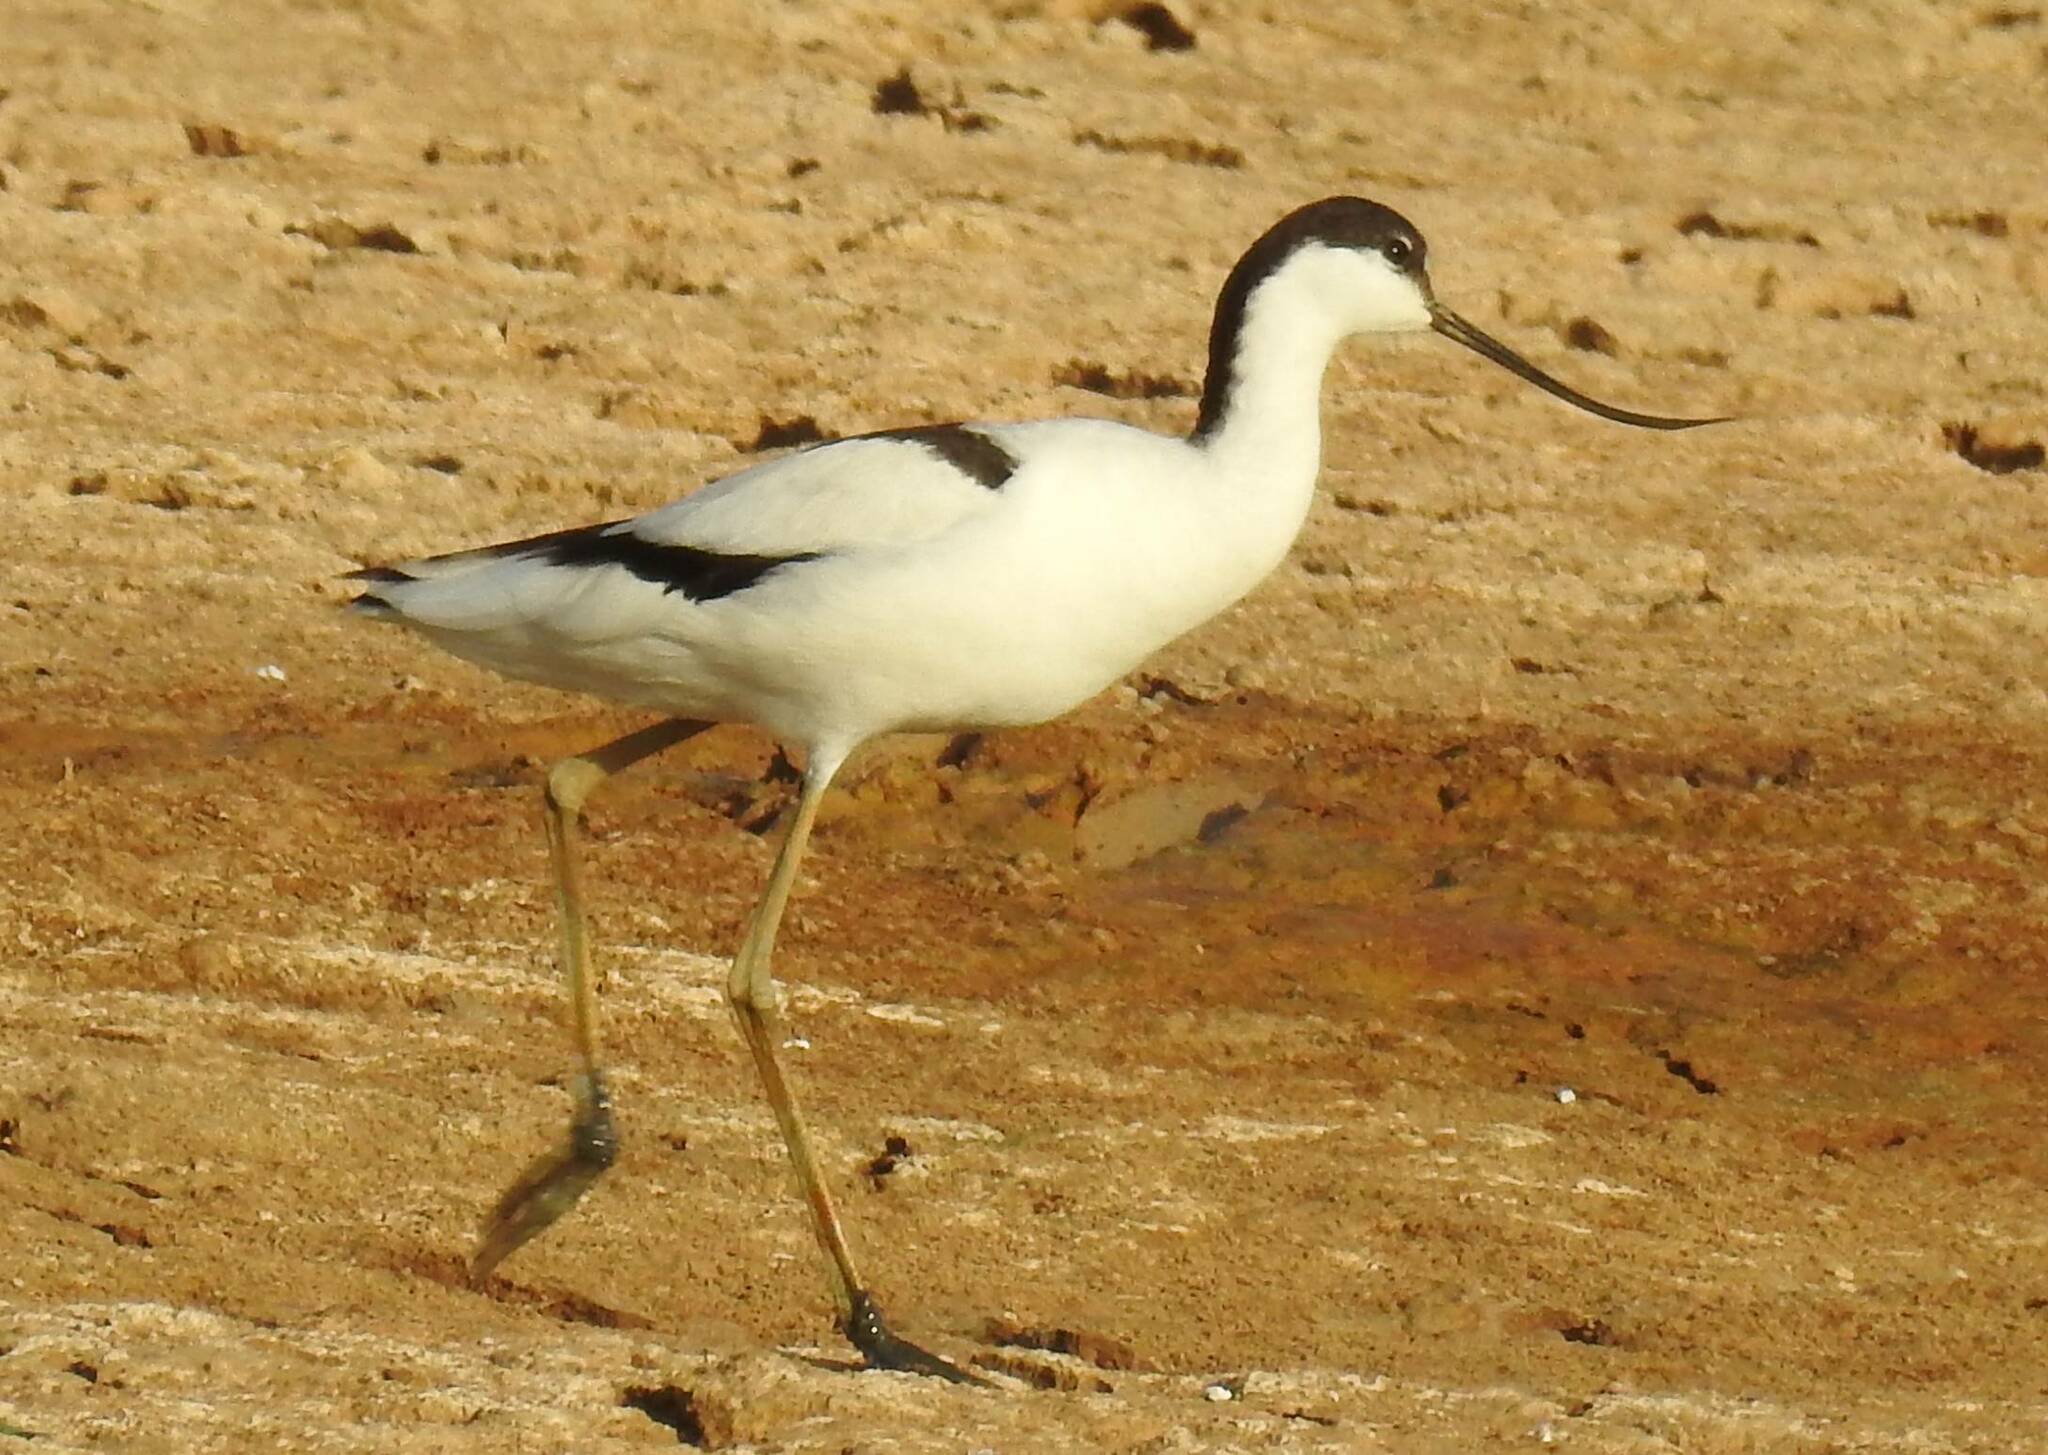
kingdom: Animalia
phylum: Chordata
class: Aves
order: Charadriiformes
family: Recurvirostridae
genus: Recurvirostra
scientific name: Recurvirostra avosetta
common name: Pied avocet
